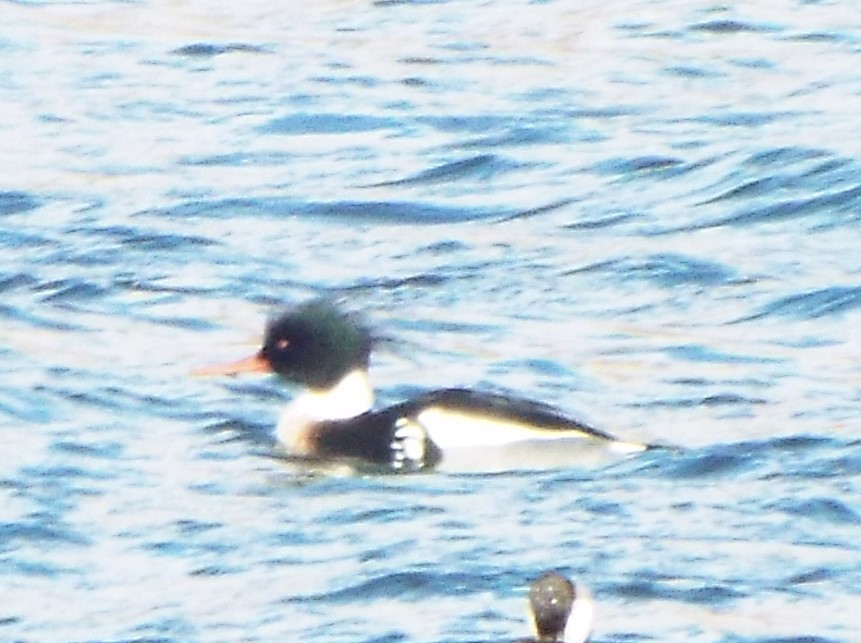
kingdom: Animalia
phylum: Chordata
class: Aves
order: Anseriformes
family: Anatidae
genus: Mergus
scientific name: Mergus serrator
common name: Red-breasted merganser
